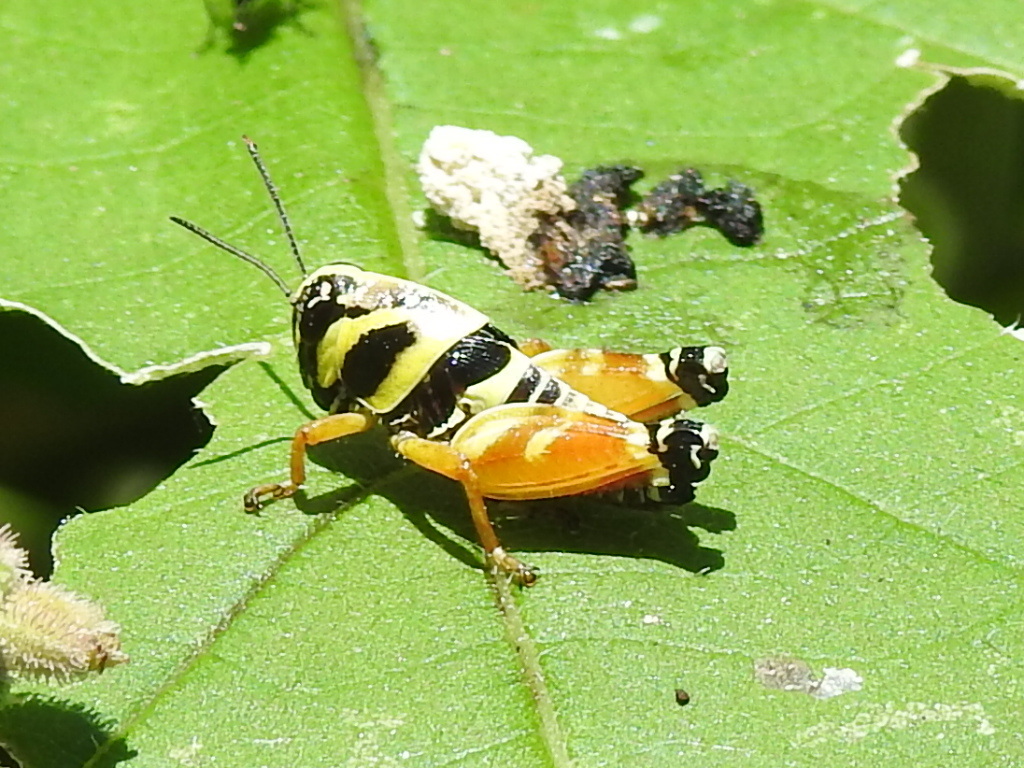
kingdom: Animalia
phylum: Arthropoda
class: Insecta
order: Orthoptera
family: Acrididae
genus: Aidemona
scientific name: Aidemona azteca
